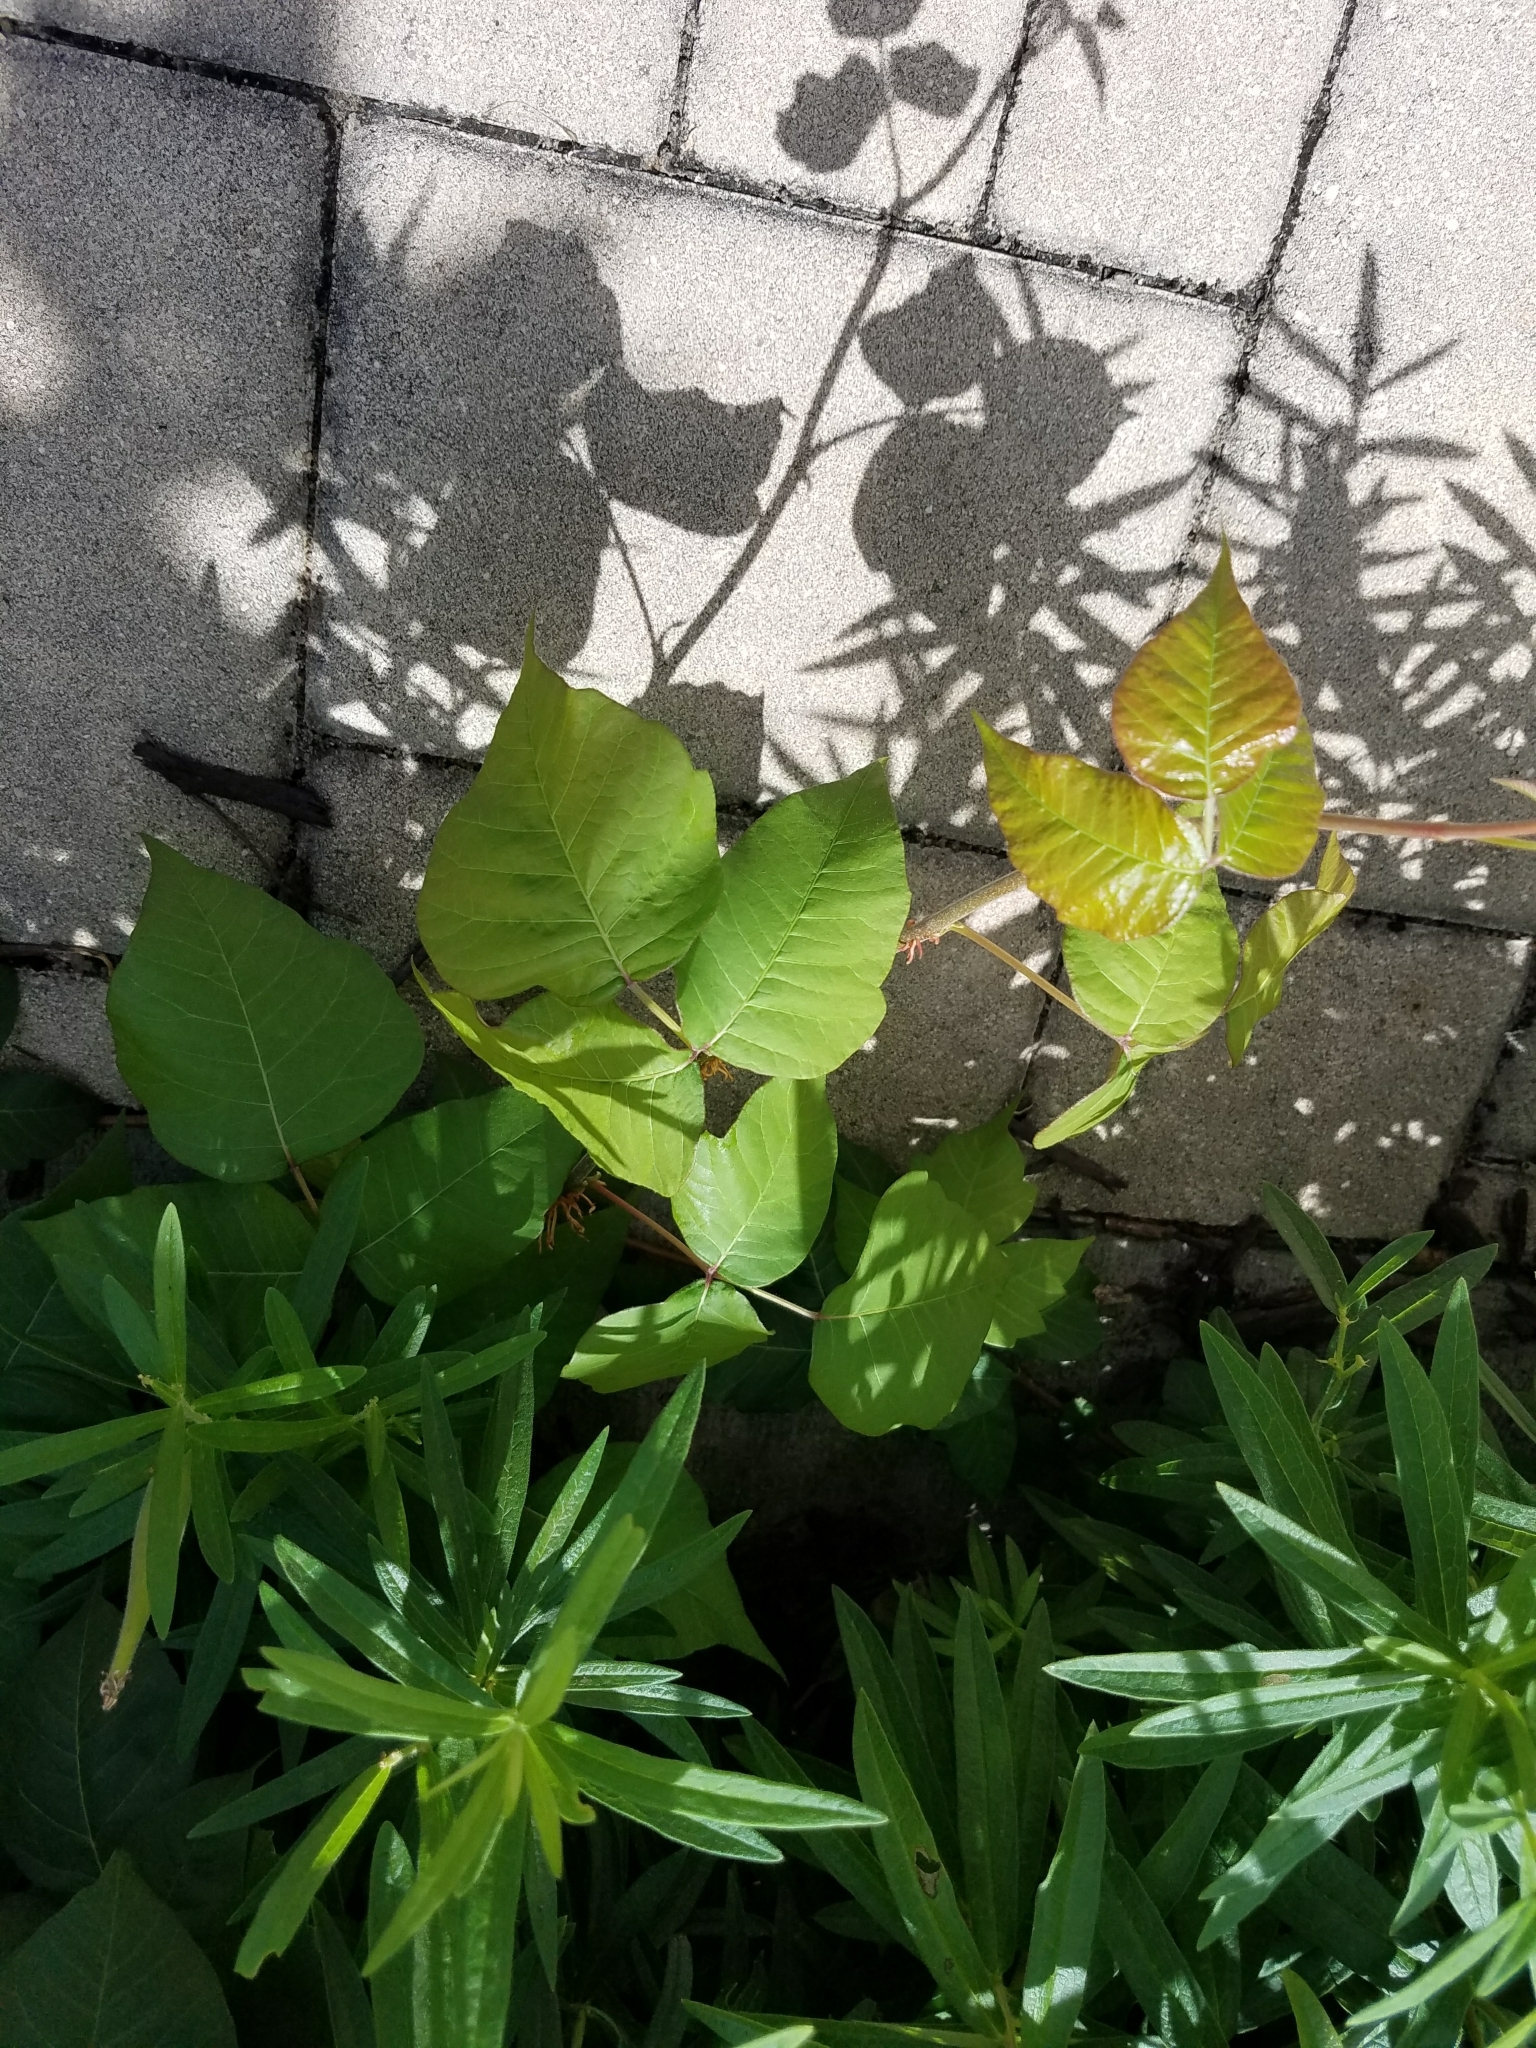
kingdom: Plantae
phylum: Tracheophyta
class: Magnoliopsida
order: Sapindales
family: Anacardiaceae
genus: Toxicodendron
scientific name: Toxicodendron radicans
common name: Poison ivy
